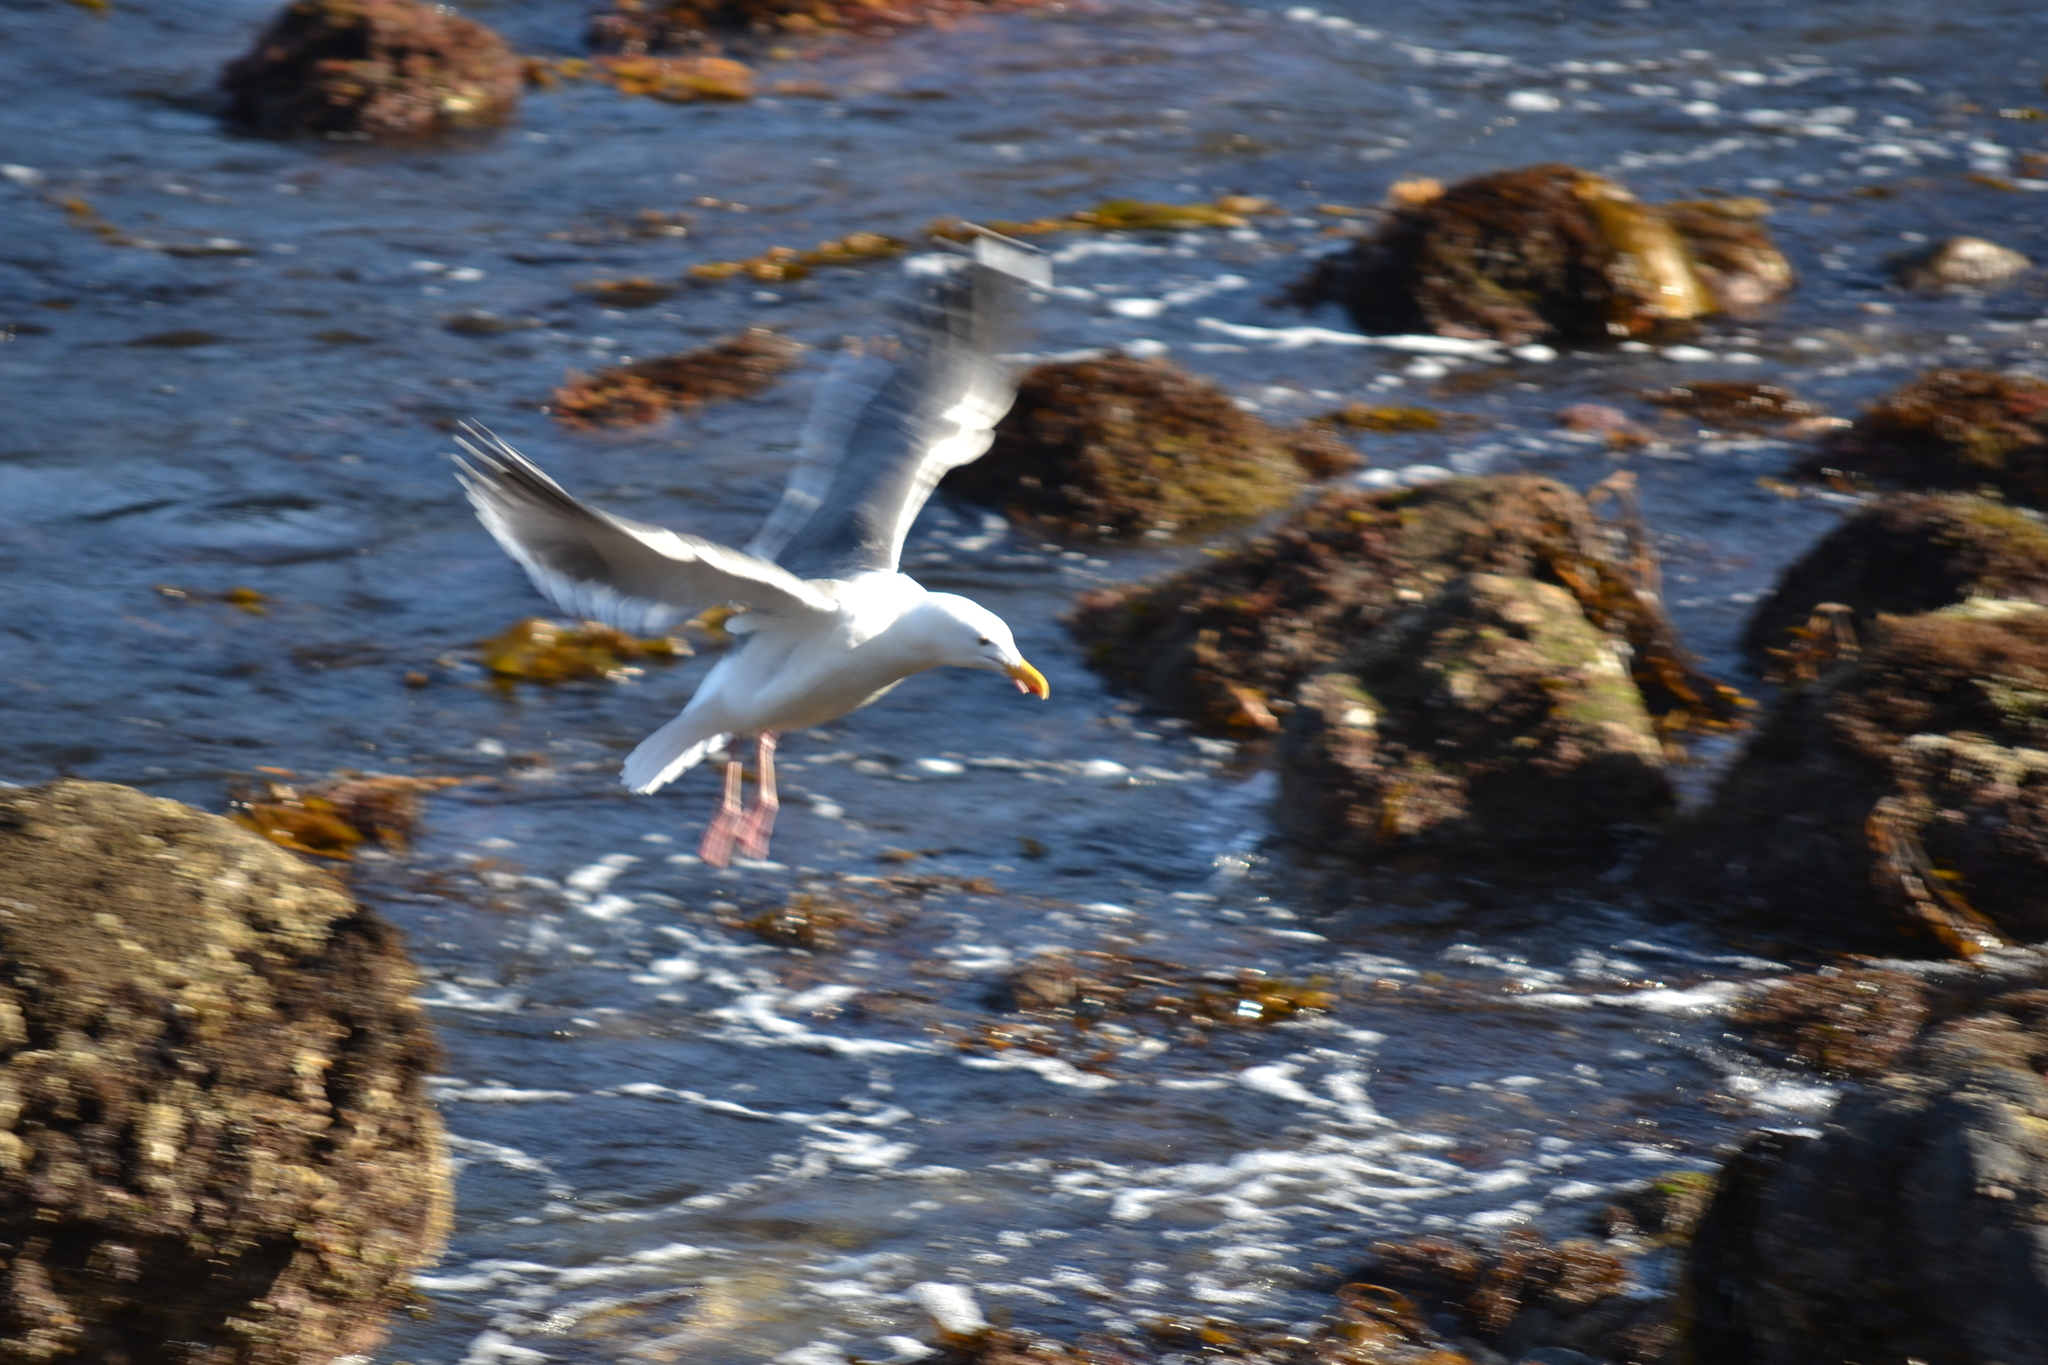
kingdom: Animalia
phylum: Chordata
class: Aves
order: Charadriiformes
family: Laridae
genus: Larus
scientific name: Larus occidentalis
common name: Western gull
